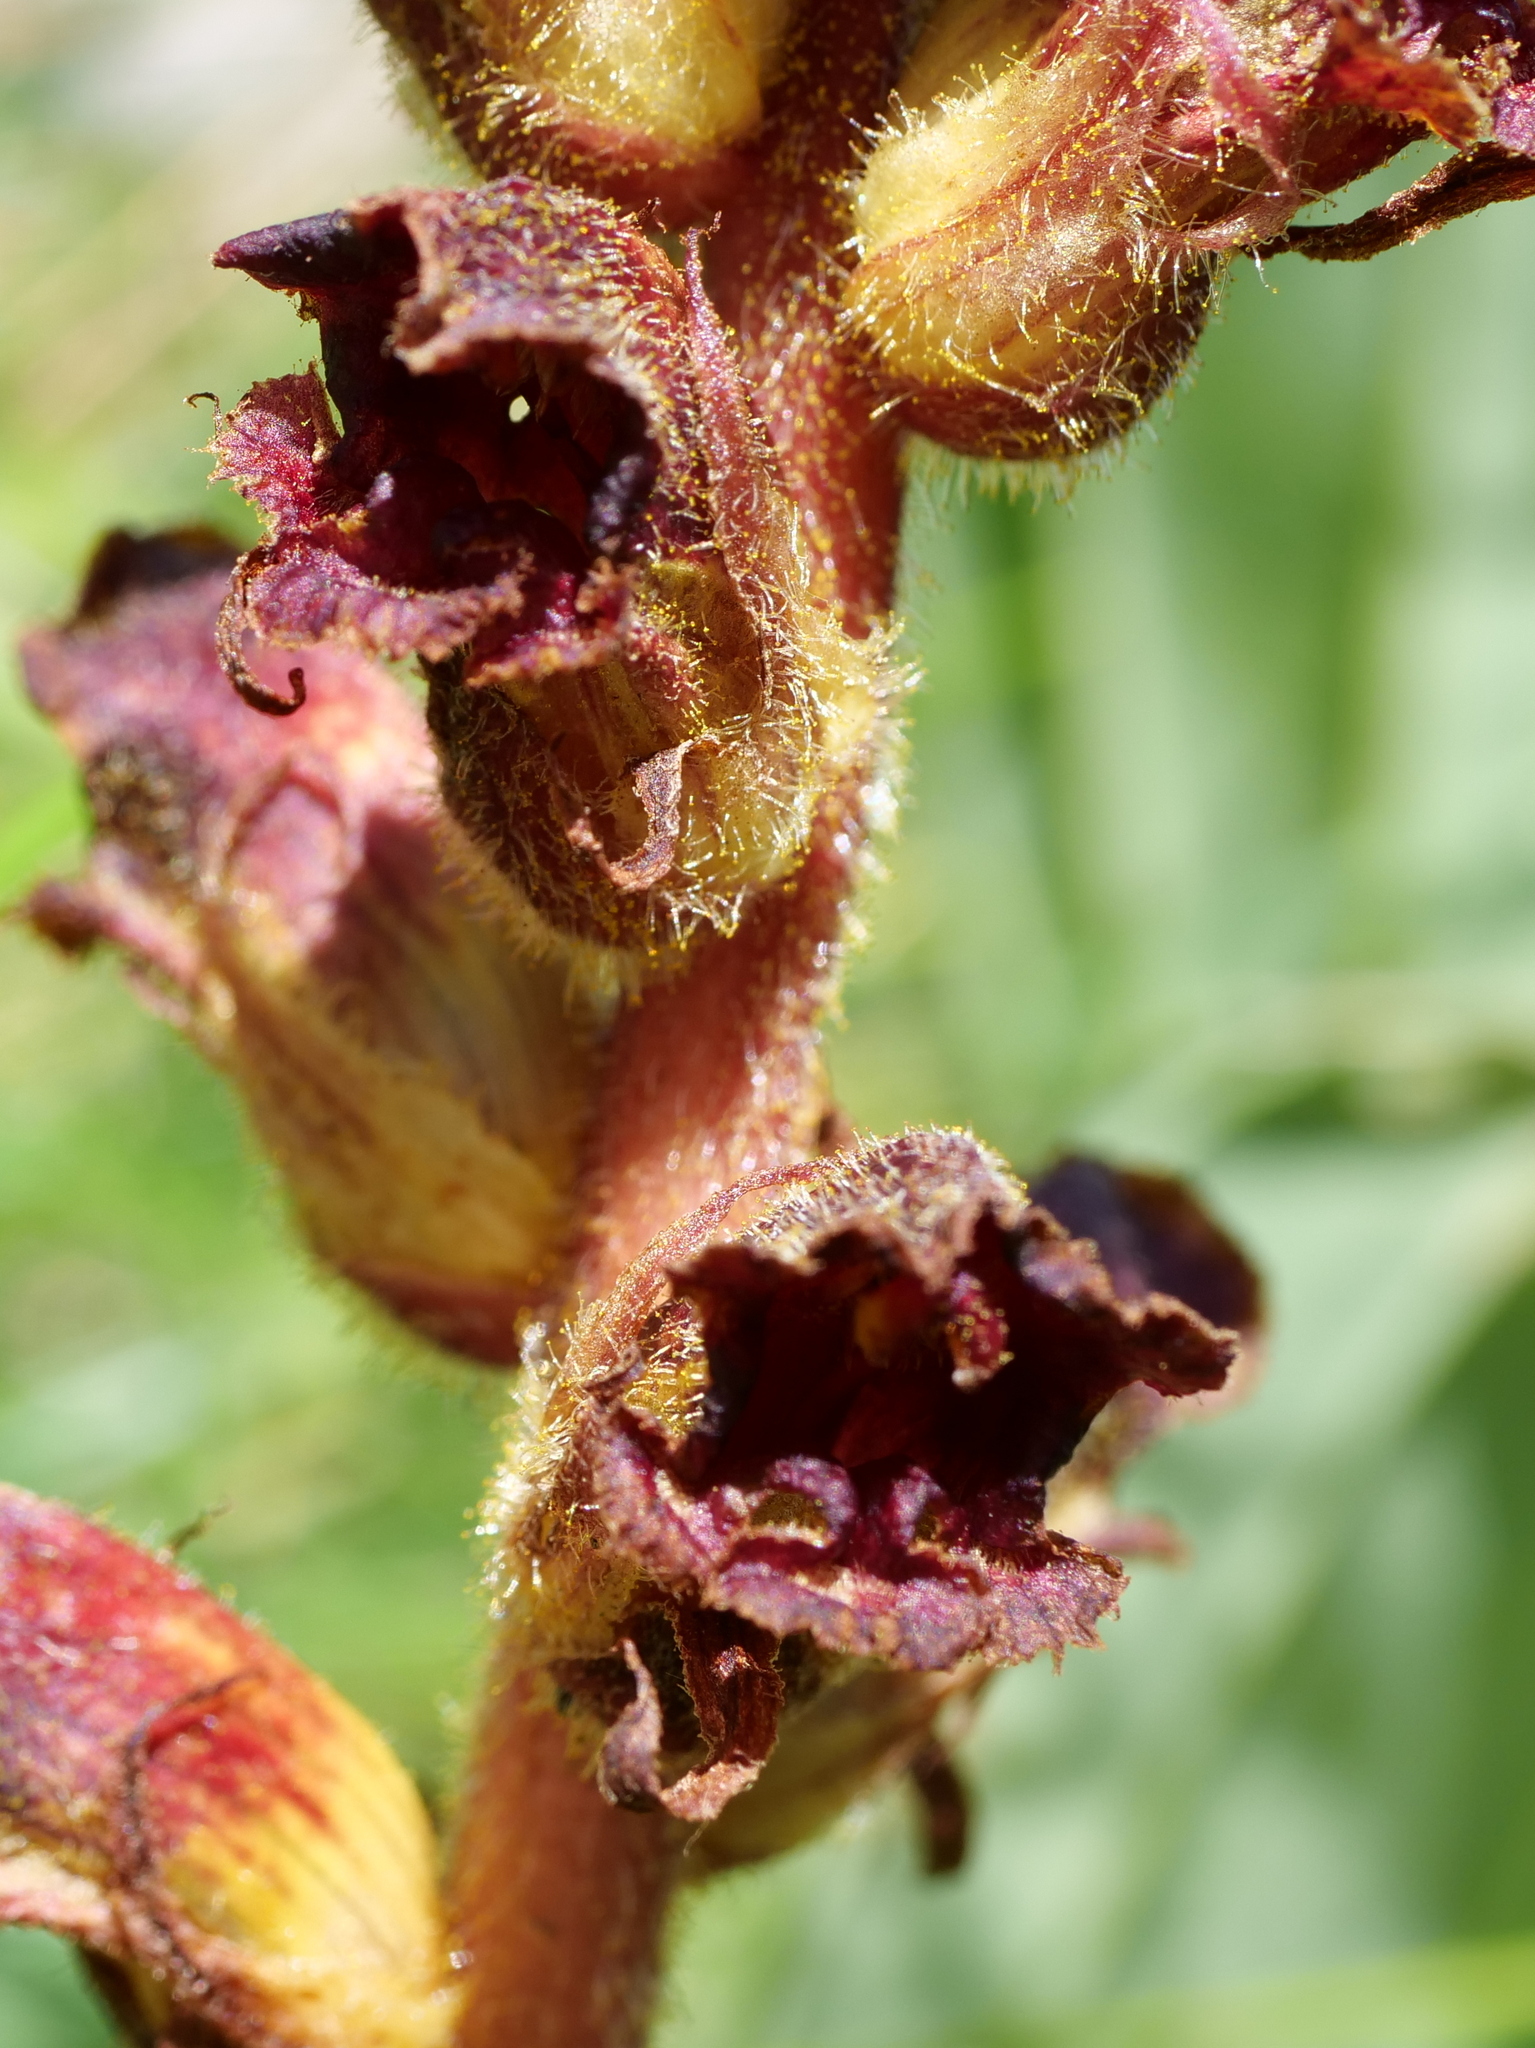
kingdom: Plantae
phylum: Tracheophyta
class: Magnoliopsida
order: Lamiales
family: Orobanchaceae
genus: Orobanche
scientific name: Orobanche gracilis
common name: Slender broomrape
